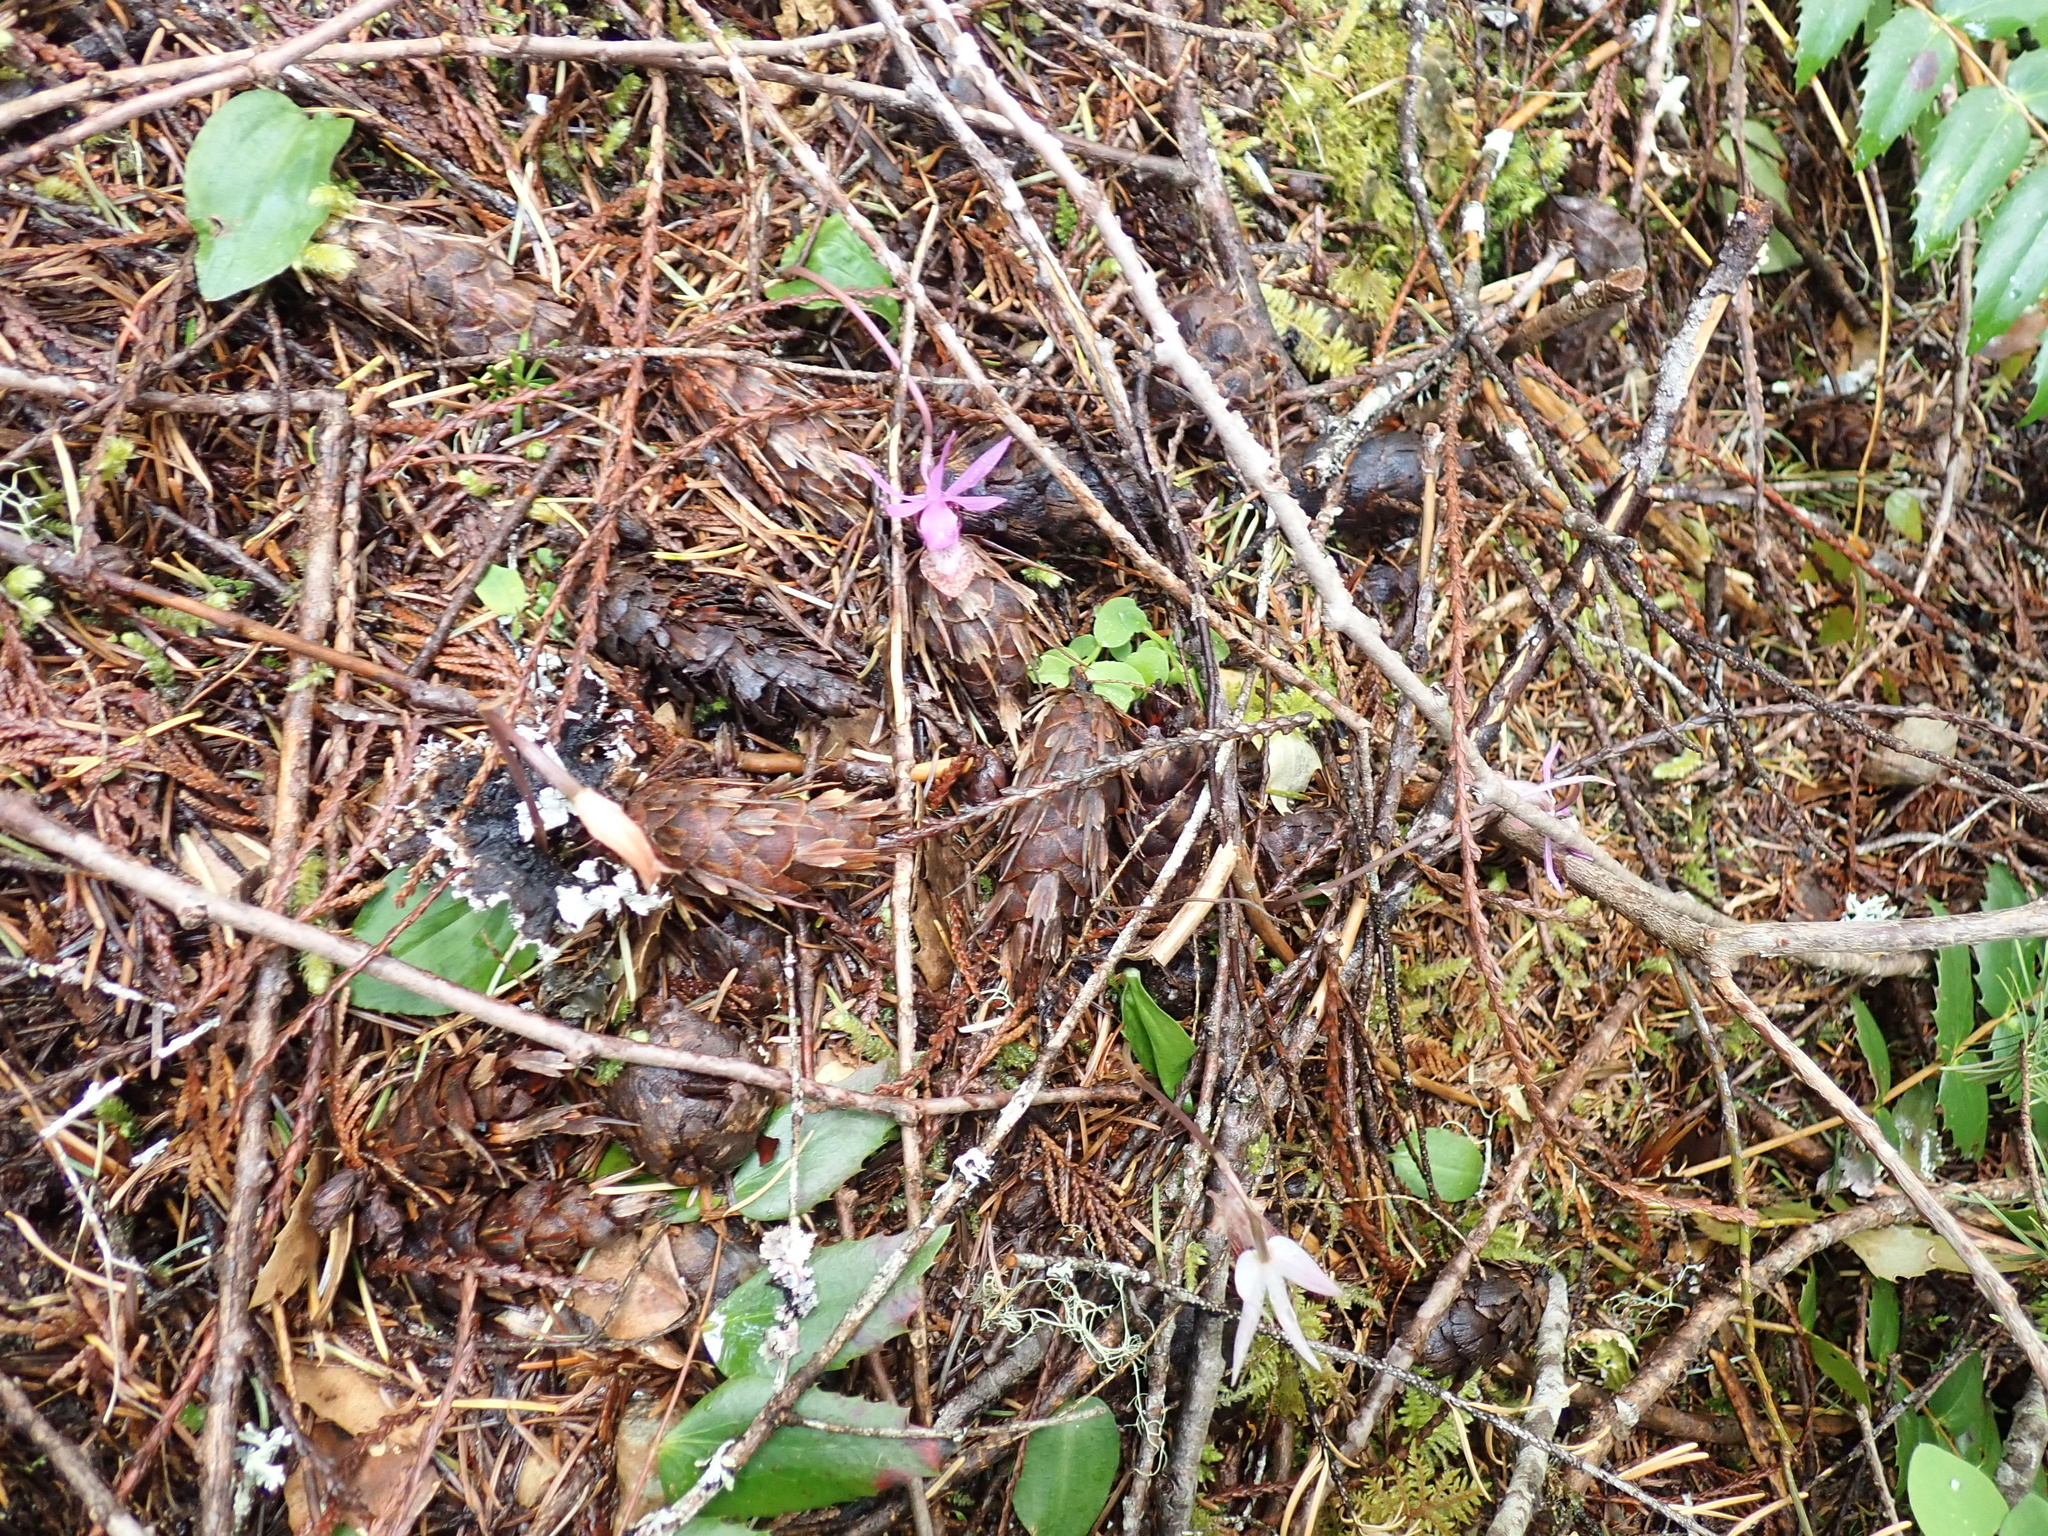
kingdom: Plantae
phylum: Tracheophyta
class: Liliopsida
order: Asparagales
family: Orchidaceae
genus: Calypso
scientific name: Calypso bulbosa
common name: Calypso
